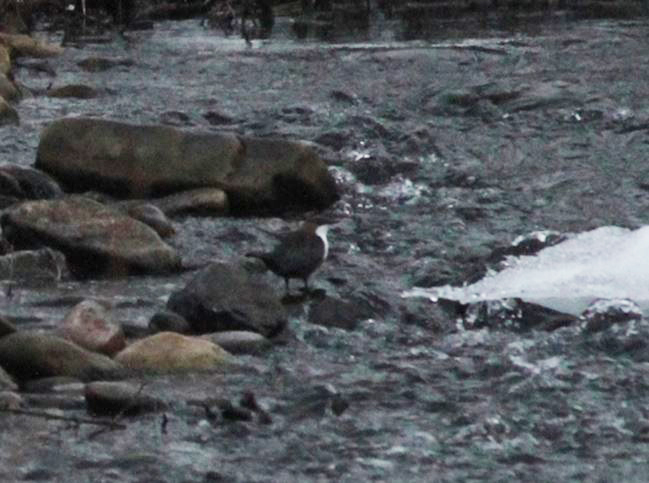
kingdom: Animalia
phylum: Chordata
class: Aves
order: Passeriformes
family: Cinclidae
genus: Cinclus
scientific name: Cinclus cinclus
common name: White-throated dipper
